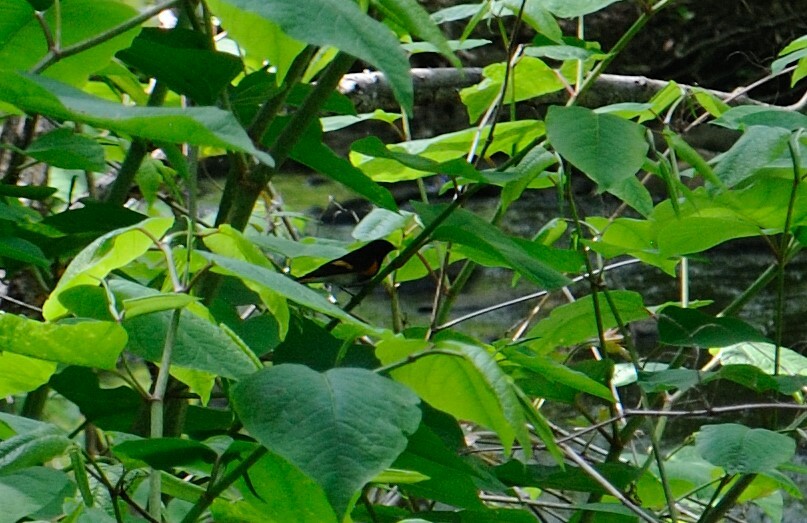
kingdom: Animalia
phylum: Chordata
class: Aves
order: Passeriformes
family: Parulidae
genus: Setophaga
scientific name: Setophaga ruticilla
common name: American redstart
